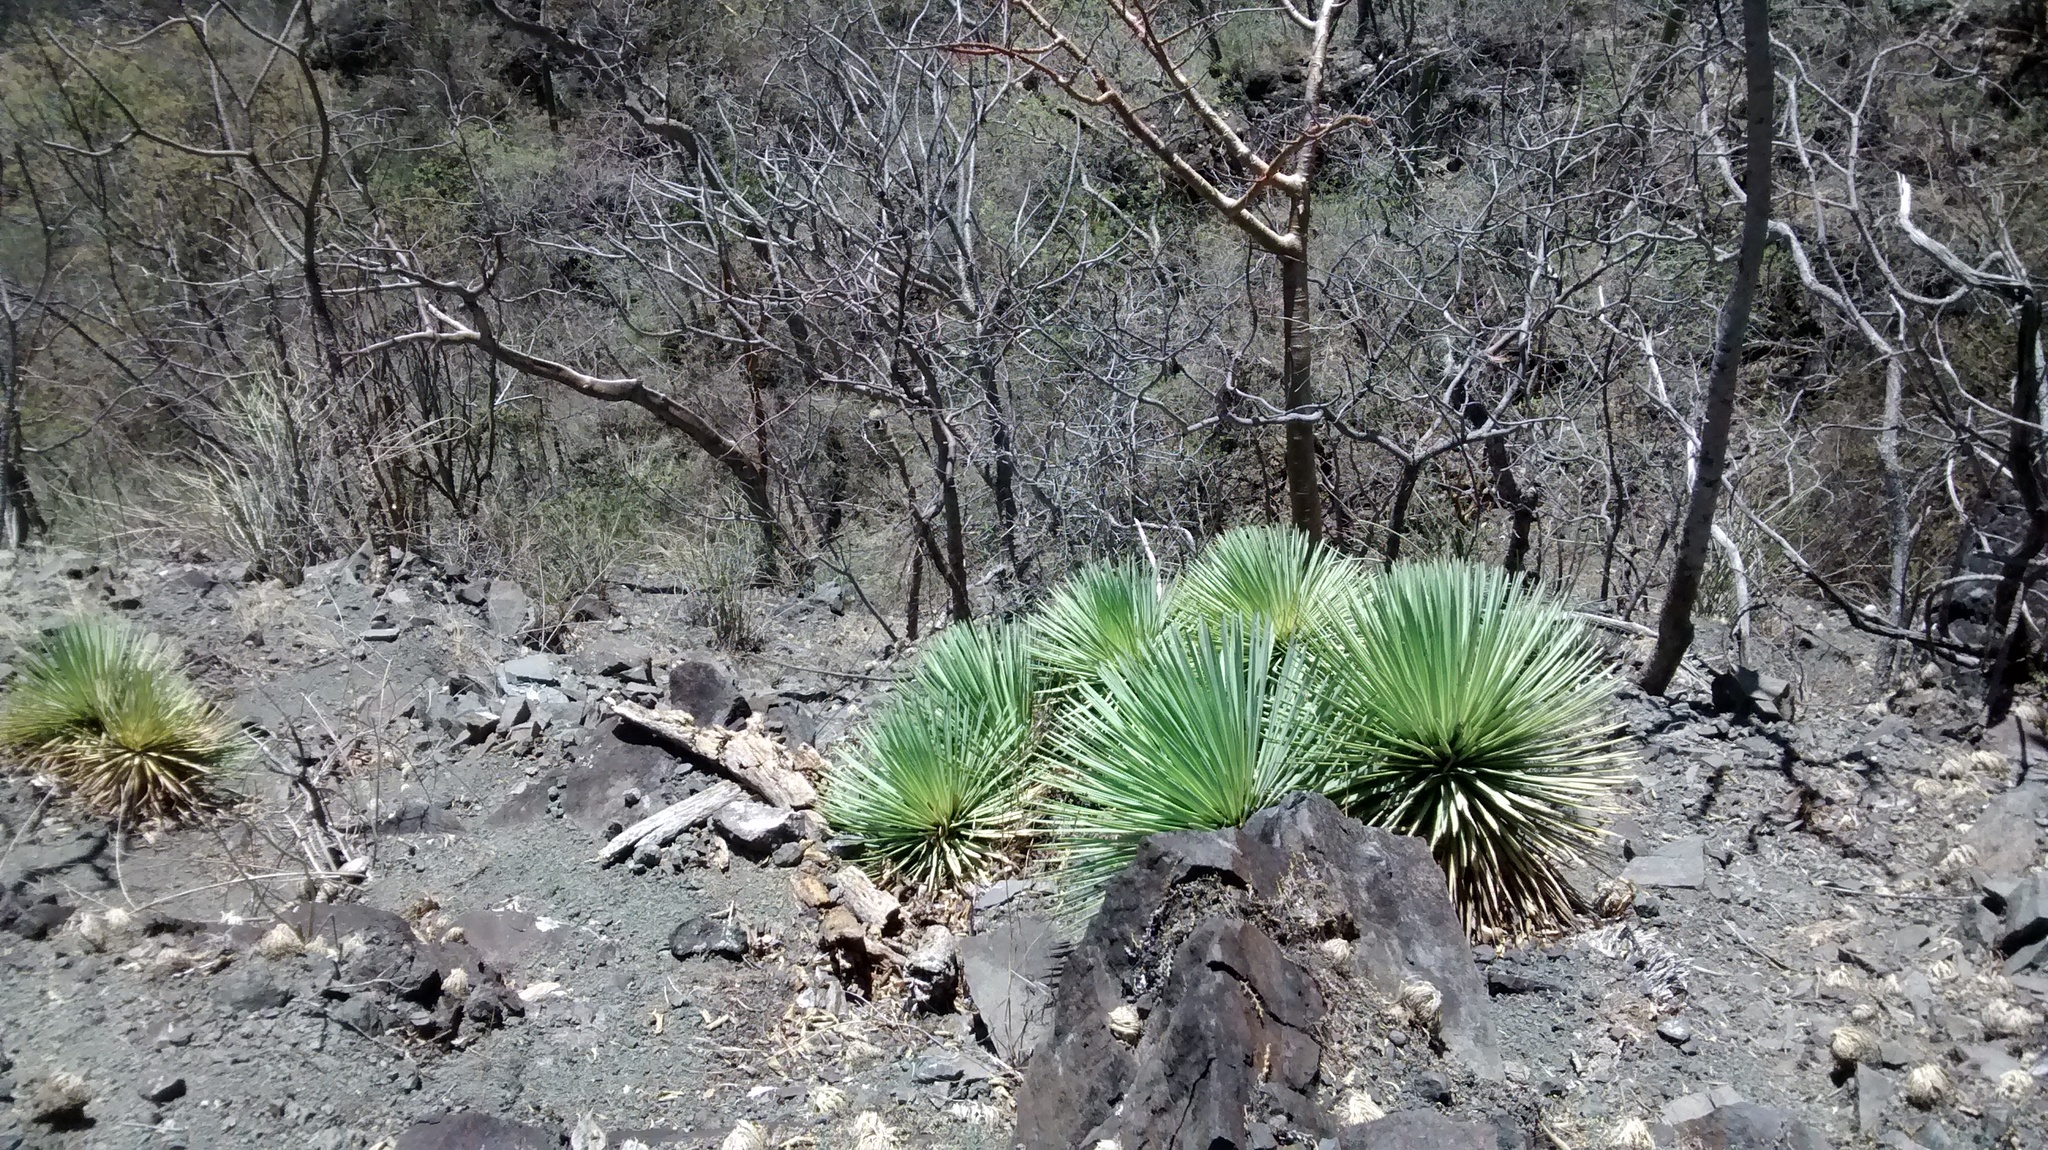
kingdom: Plantae
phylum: Tracheophyta
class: Liliopsida
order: Asparagales
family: Asparagaceae
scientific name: Asparagaceae
